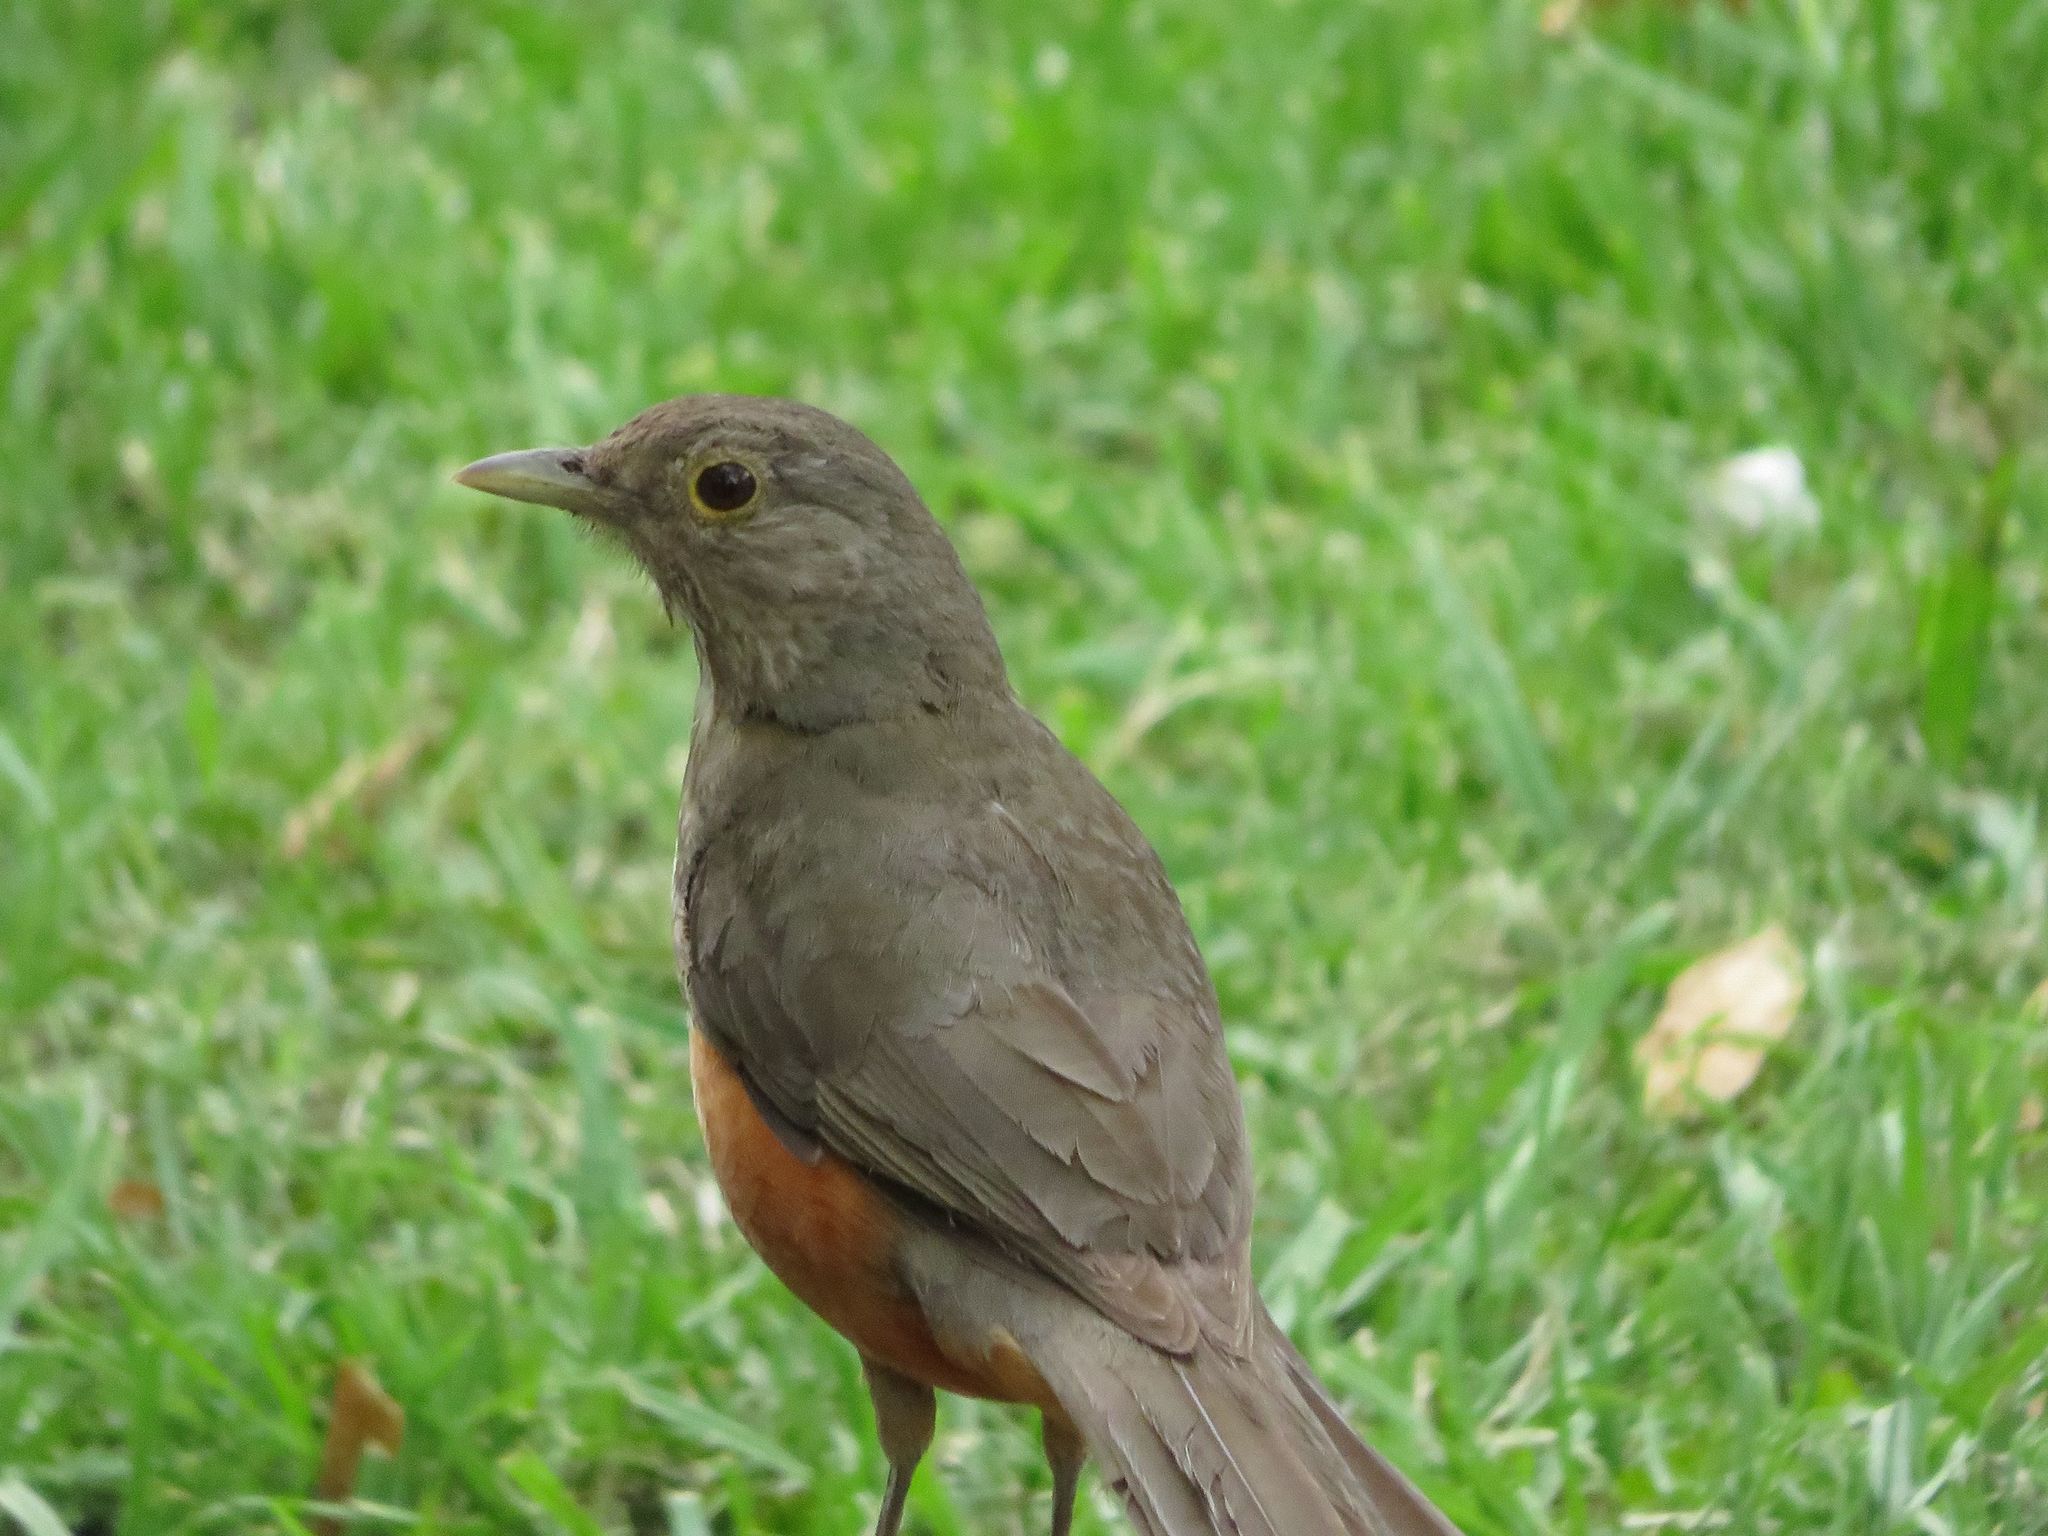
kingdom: Animalia
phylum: Chordata
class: Aves
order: Passeriformes
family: Turdidae
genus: Turdus
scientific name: Turdus rufiventris
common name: Rufous-bellied thrush
